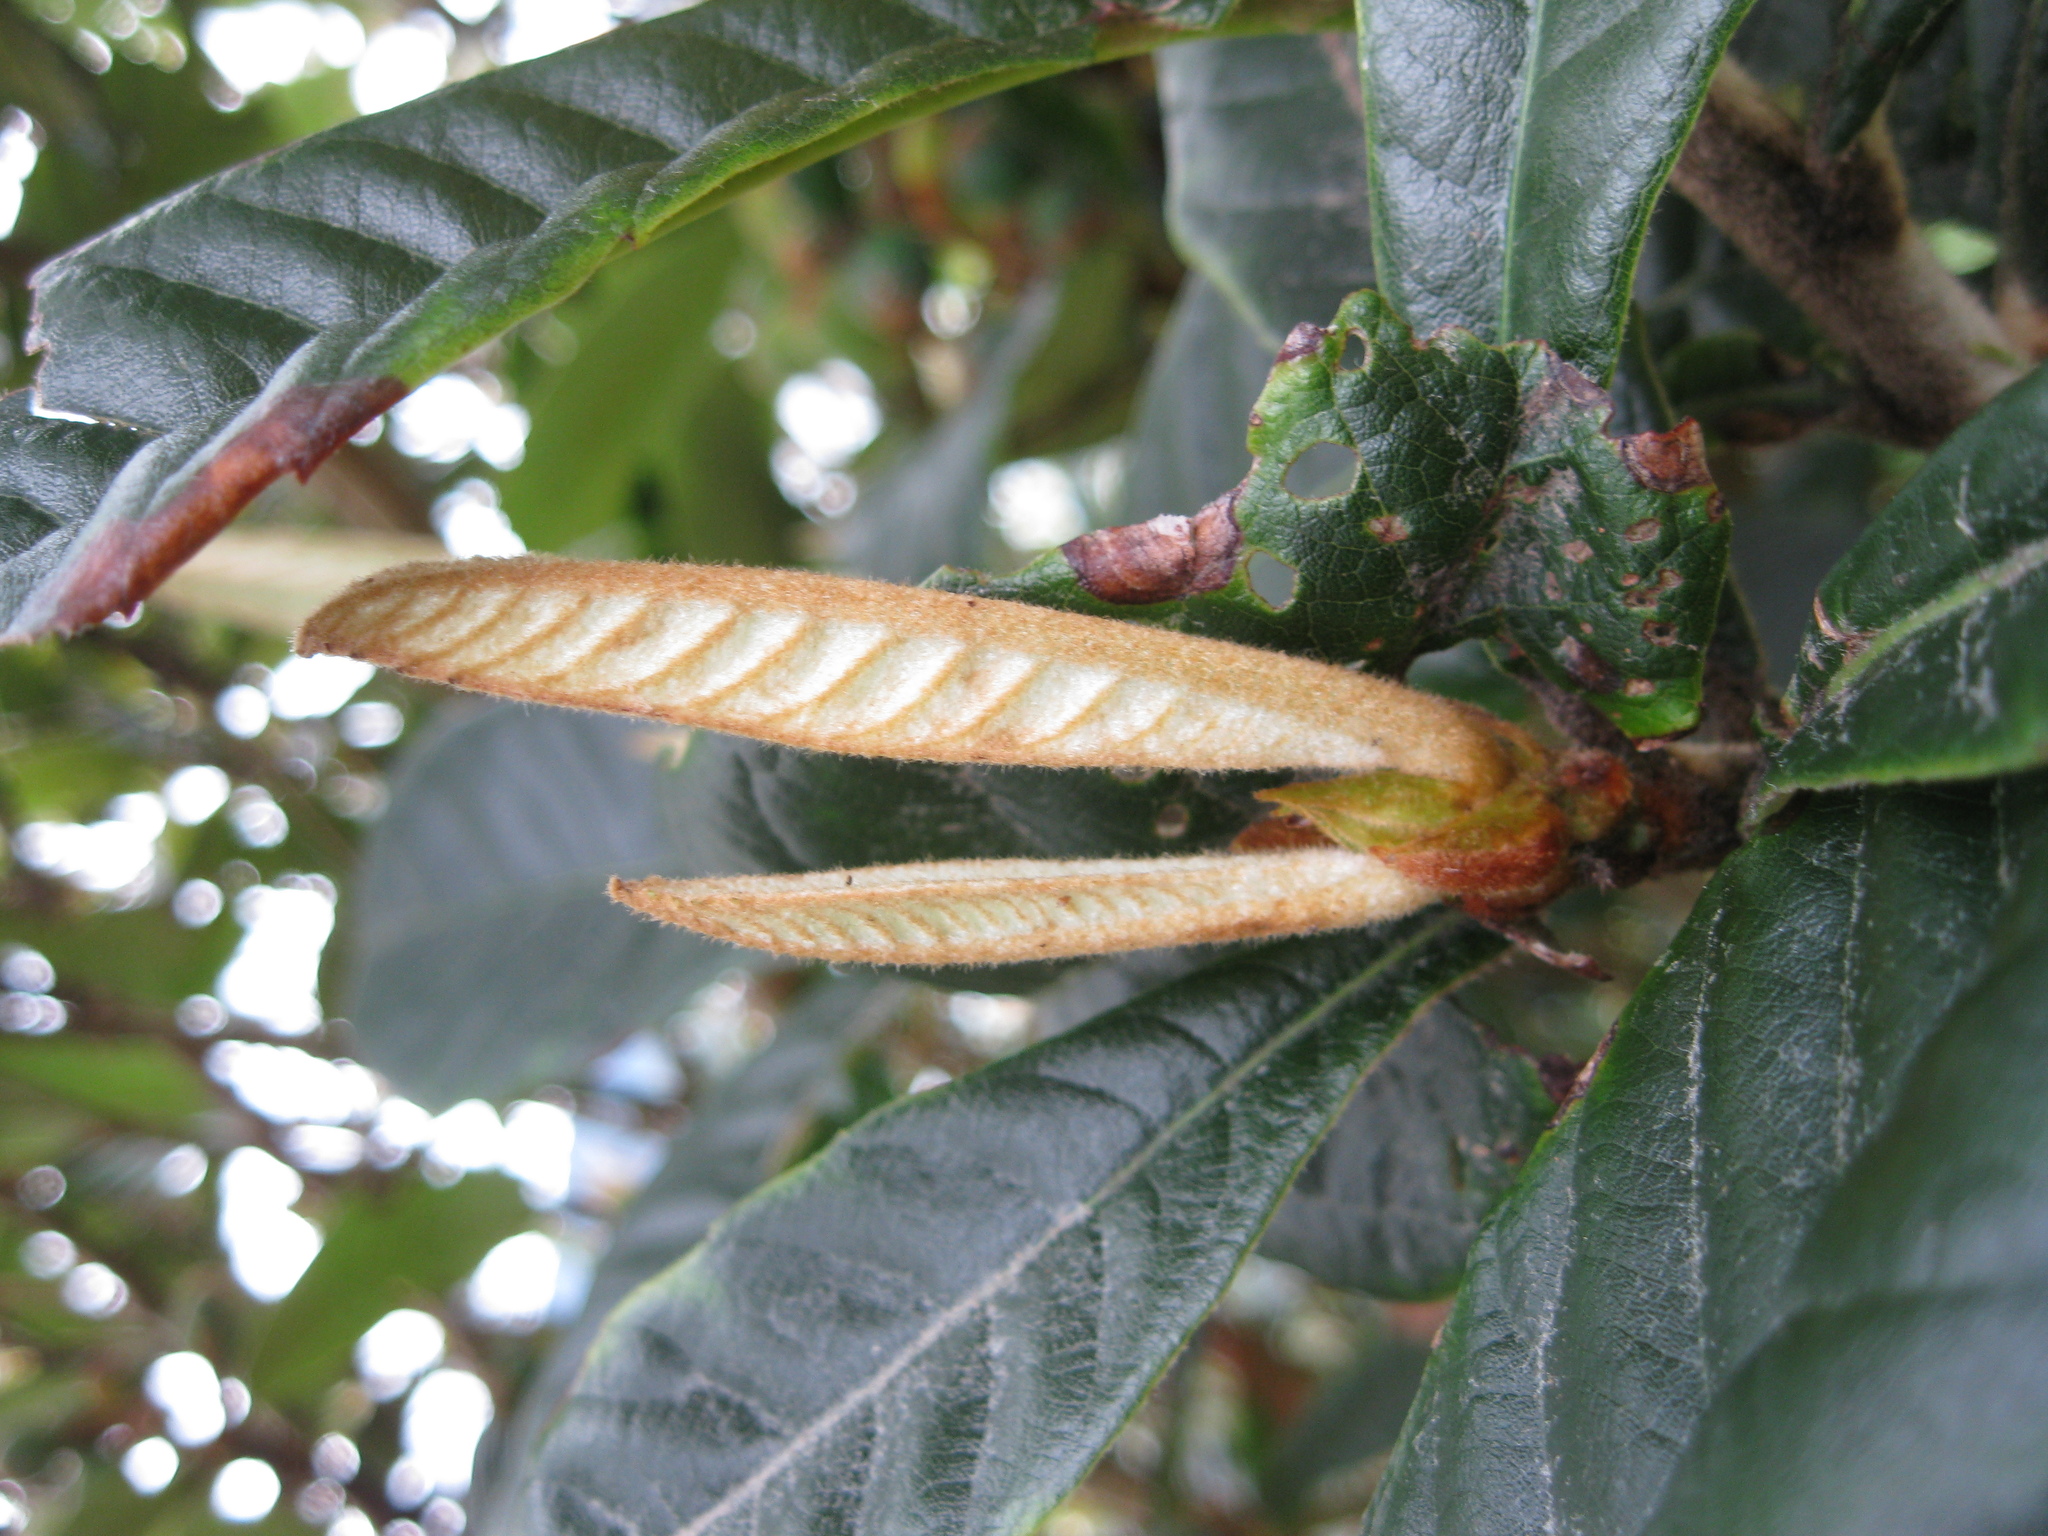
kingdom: Plantae
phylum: Tracheophyta
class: Magnoliopsida
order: Rosales
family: Rosaceae
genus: Rhaphiolepis
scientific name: Rhaphiolepis bibas
